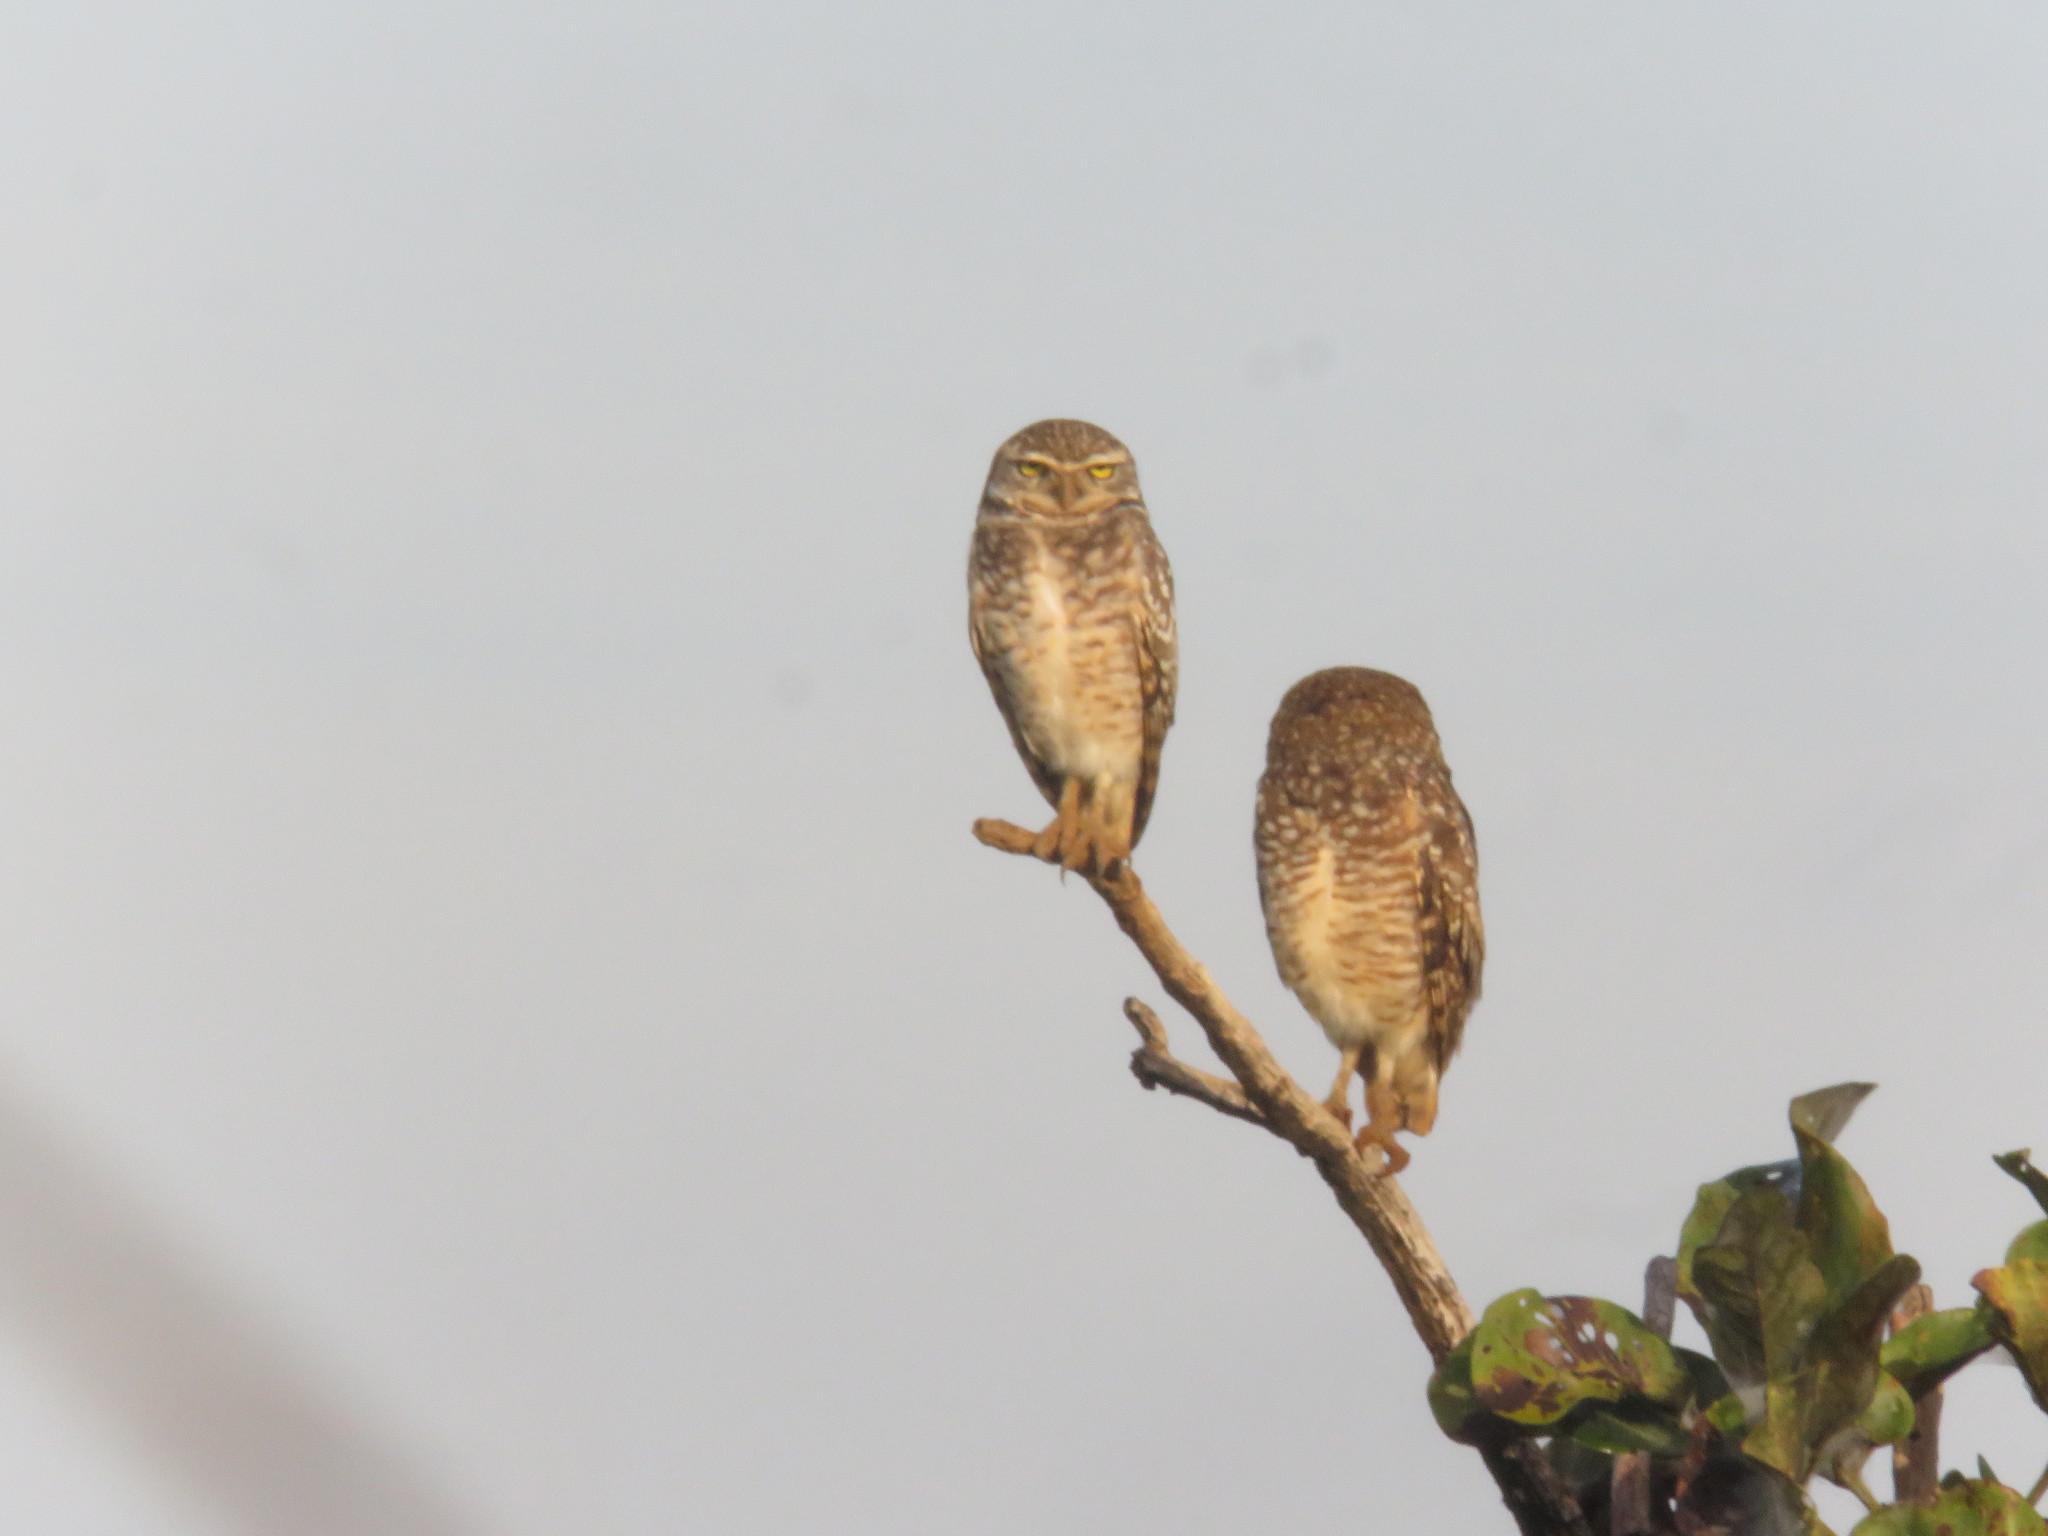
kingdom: Animalia
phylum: Chordata
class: Aves
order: Strigiformes
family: Strigidae
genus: Athene
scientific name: Athene cunicularia
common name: Burrowing owl
